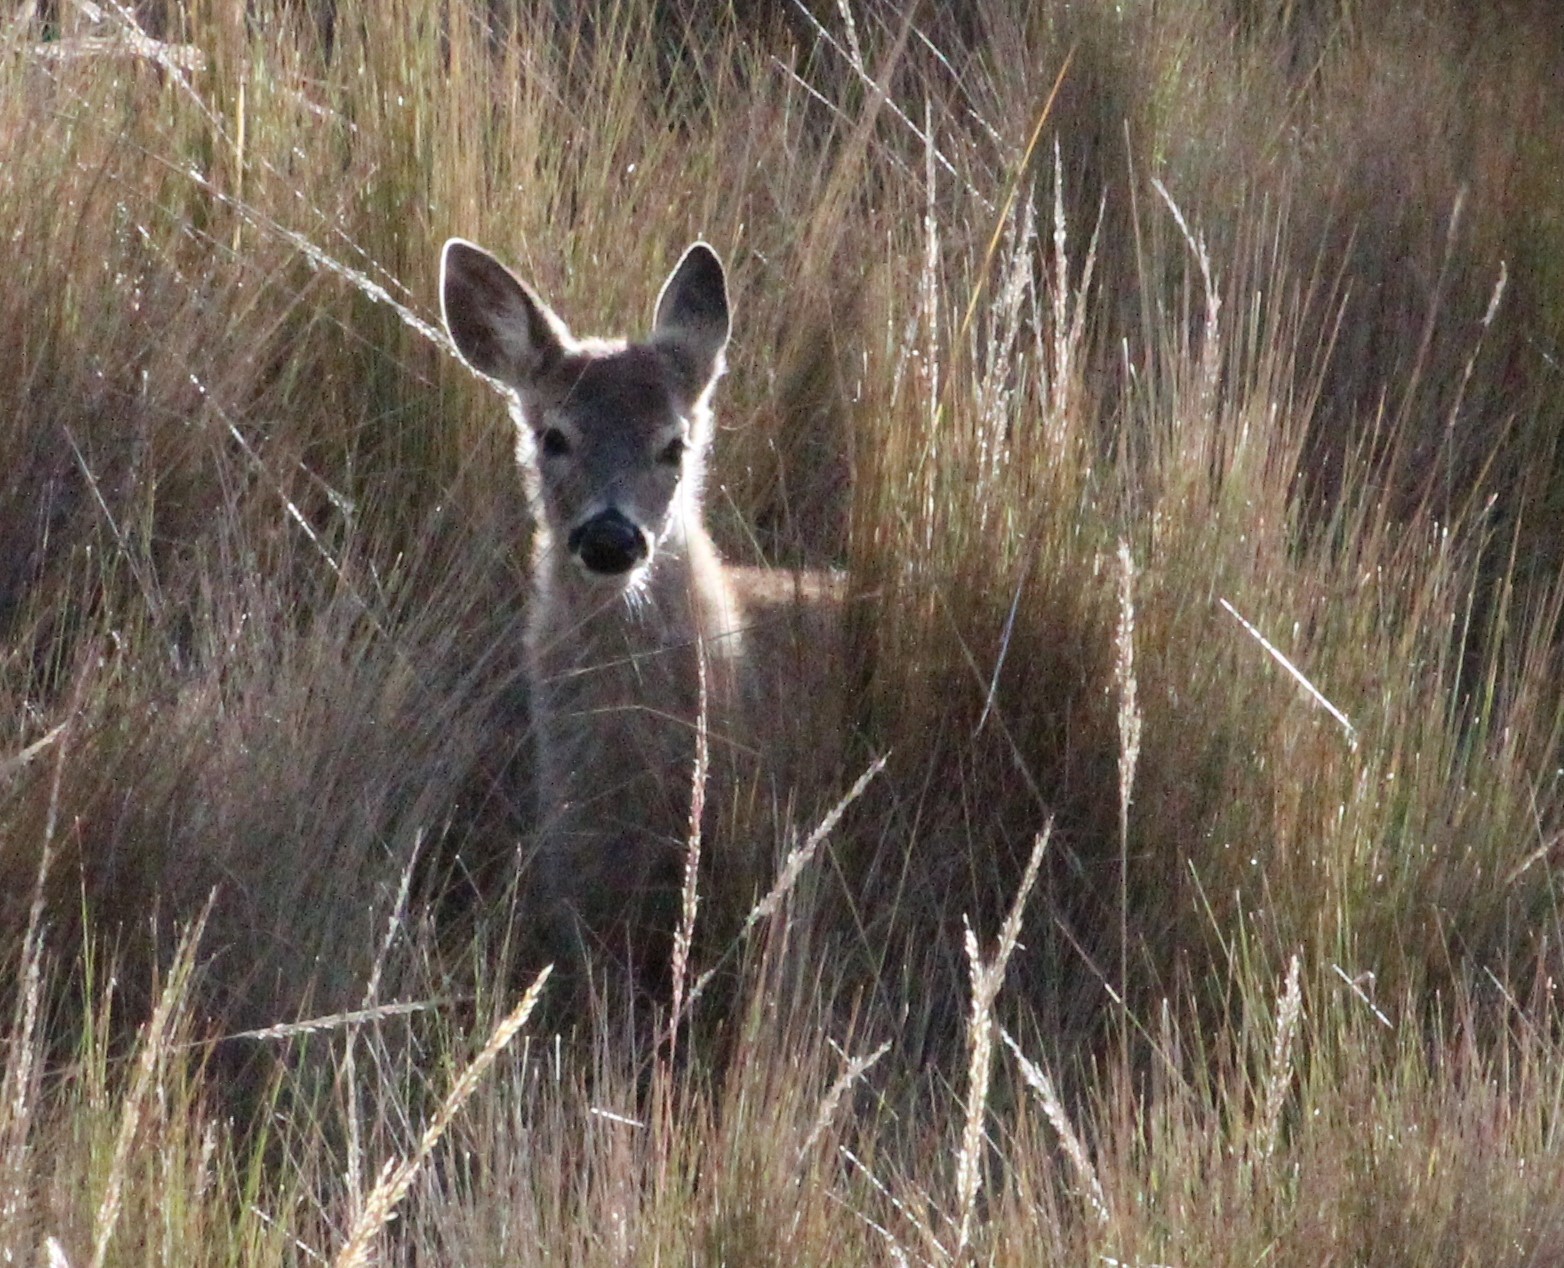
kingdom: Animalia
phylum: Chordata
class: Mammalia
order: Artiodactyla
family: Cervidae
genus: Odocoileus
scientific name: Odocoileus virginianus
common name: White-tailed deer
